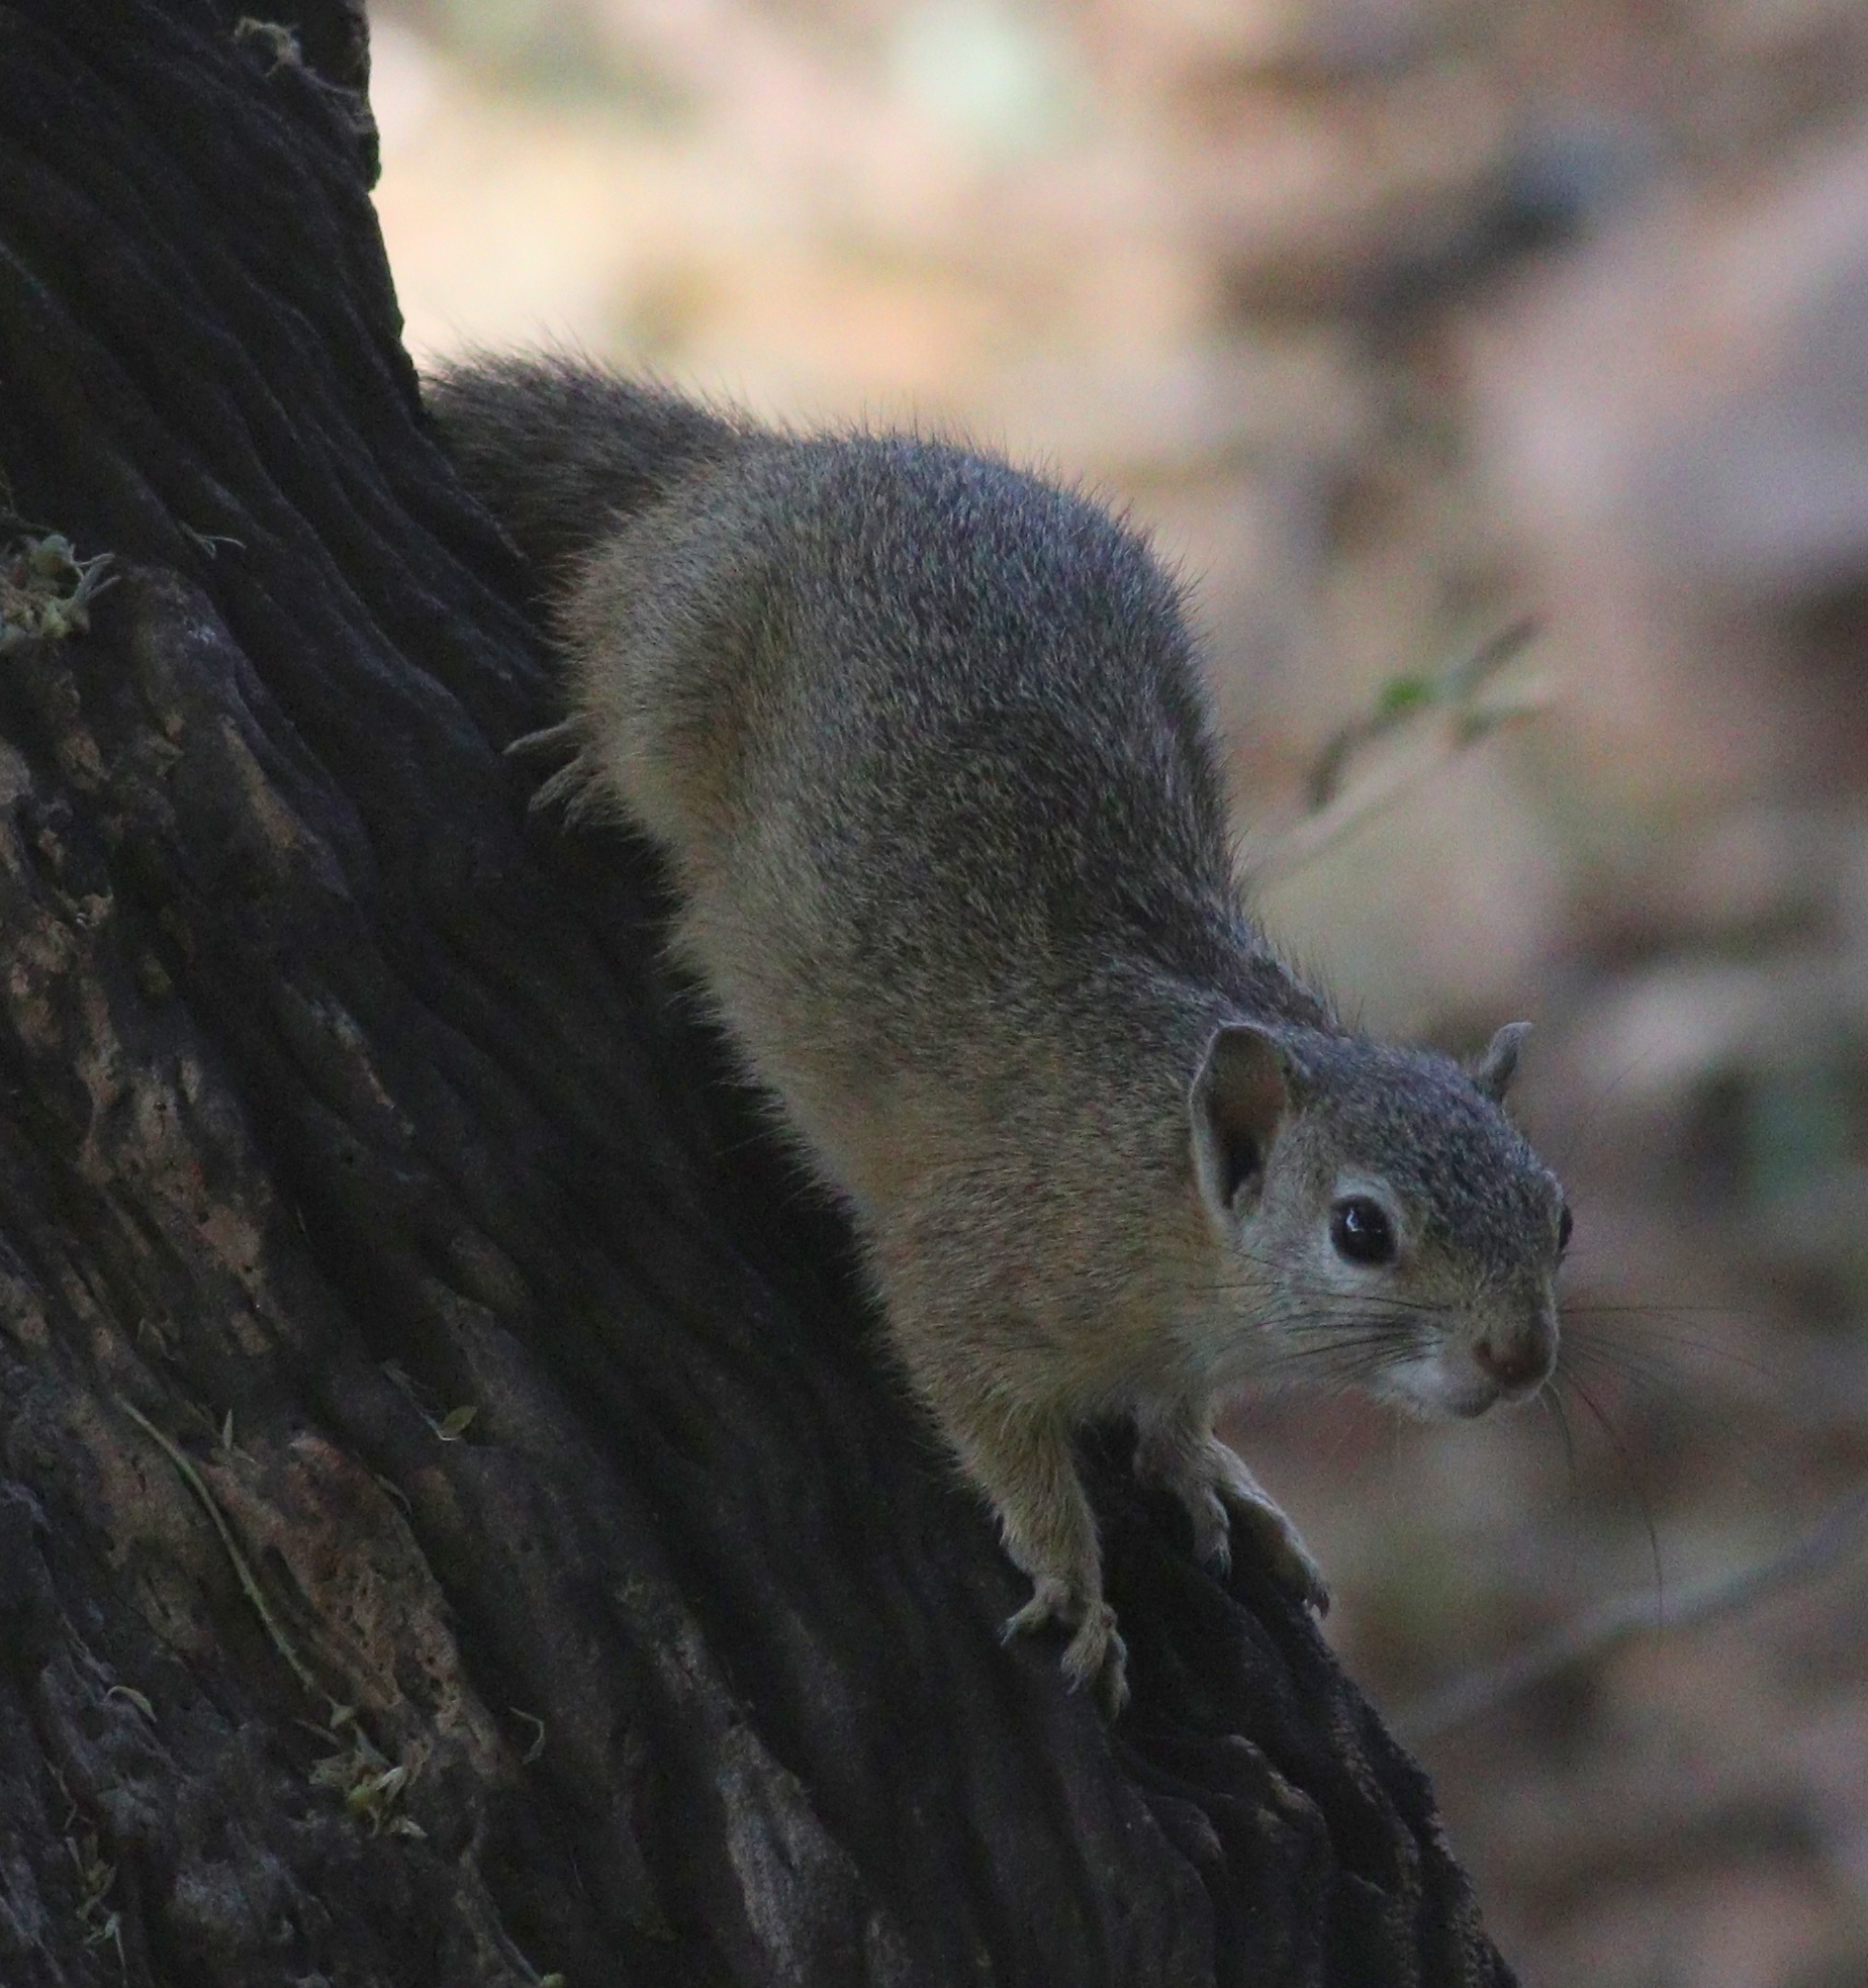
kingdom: Animalia
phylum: Chordata
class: Mammalia
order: Rodentia
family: Sciuridae
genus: Paraxerus
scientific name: Paraxerus cepapi
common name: Smith's bush squirrel
